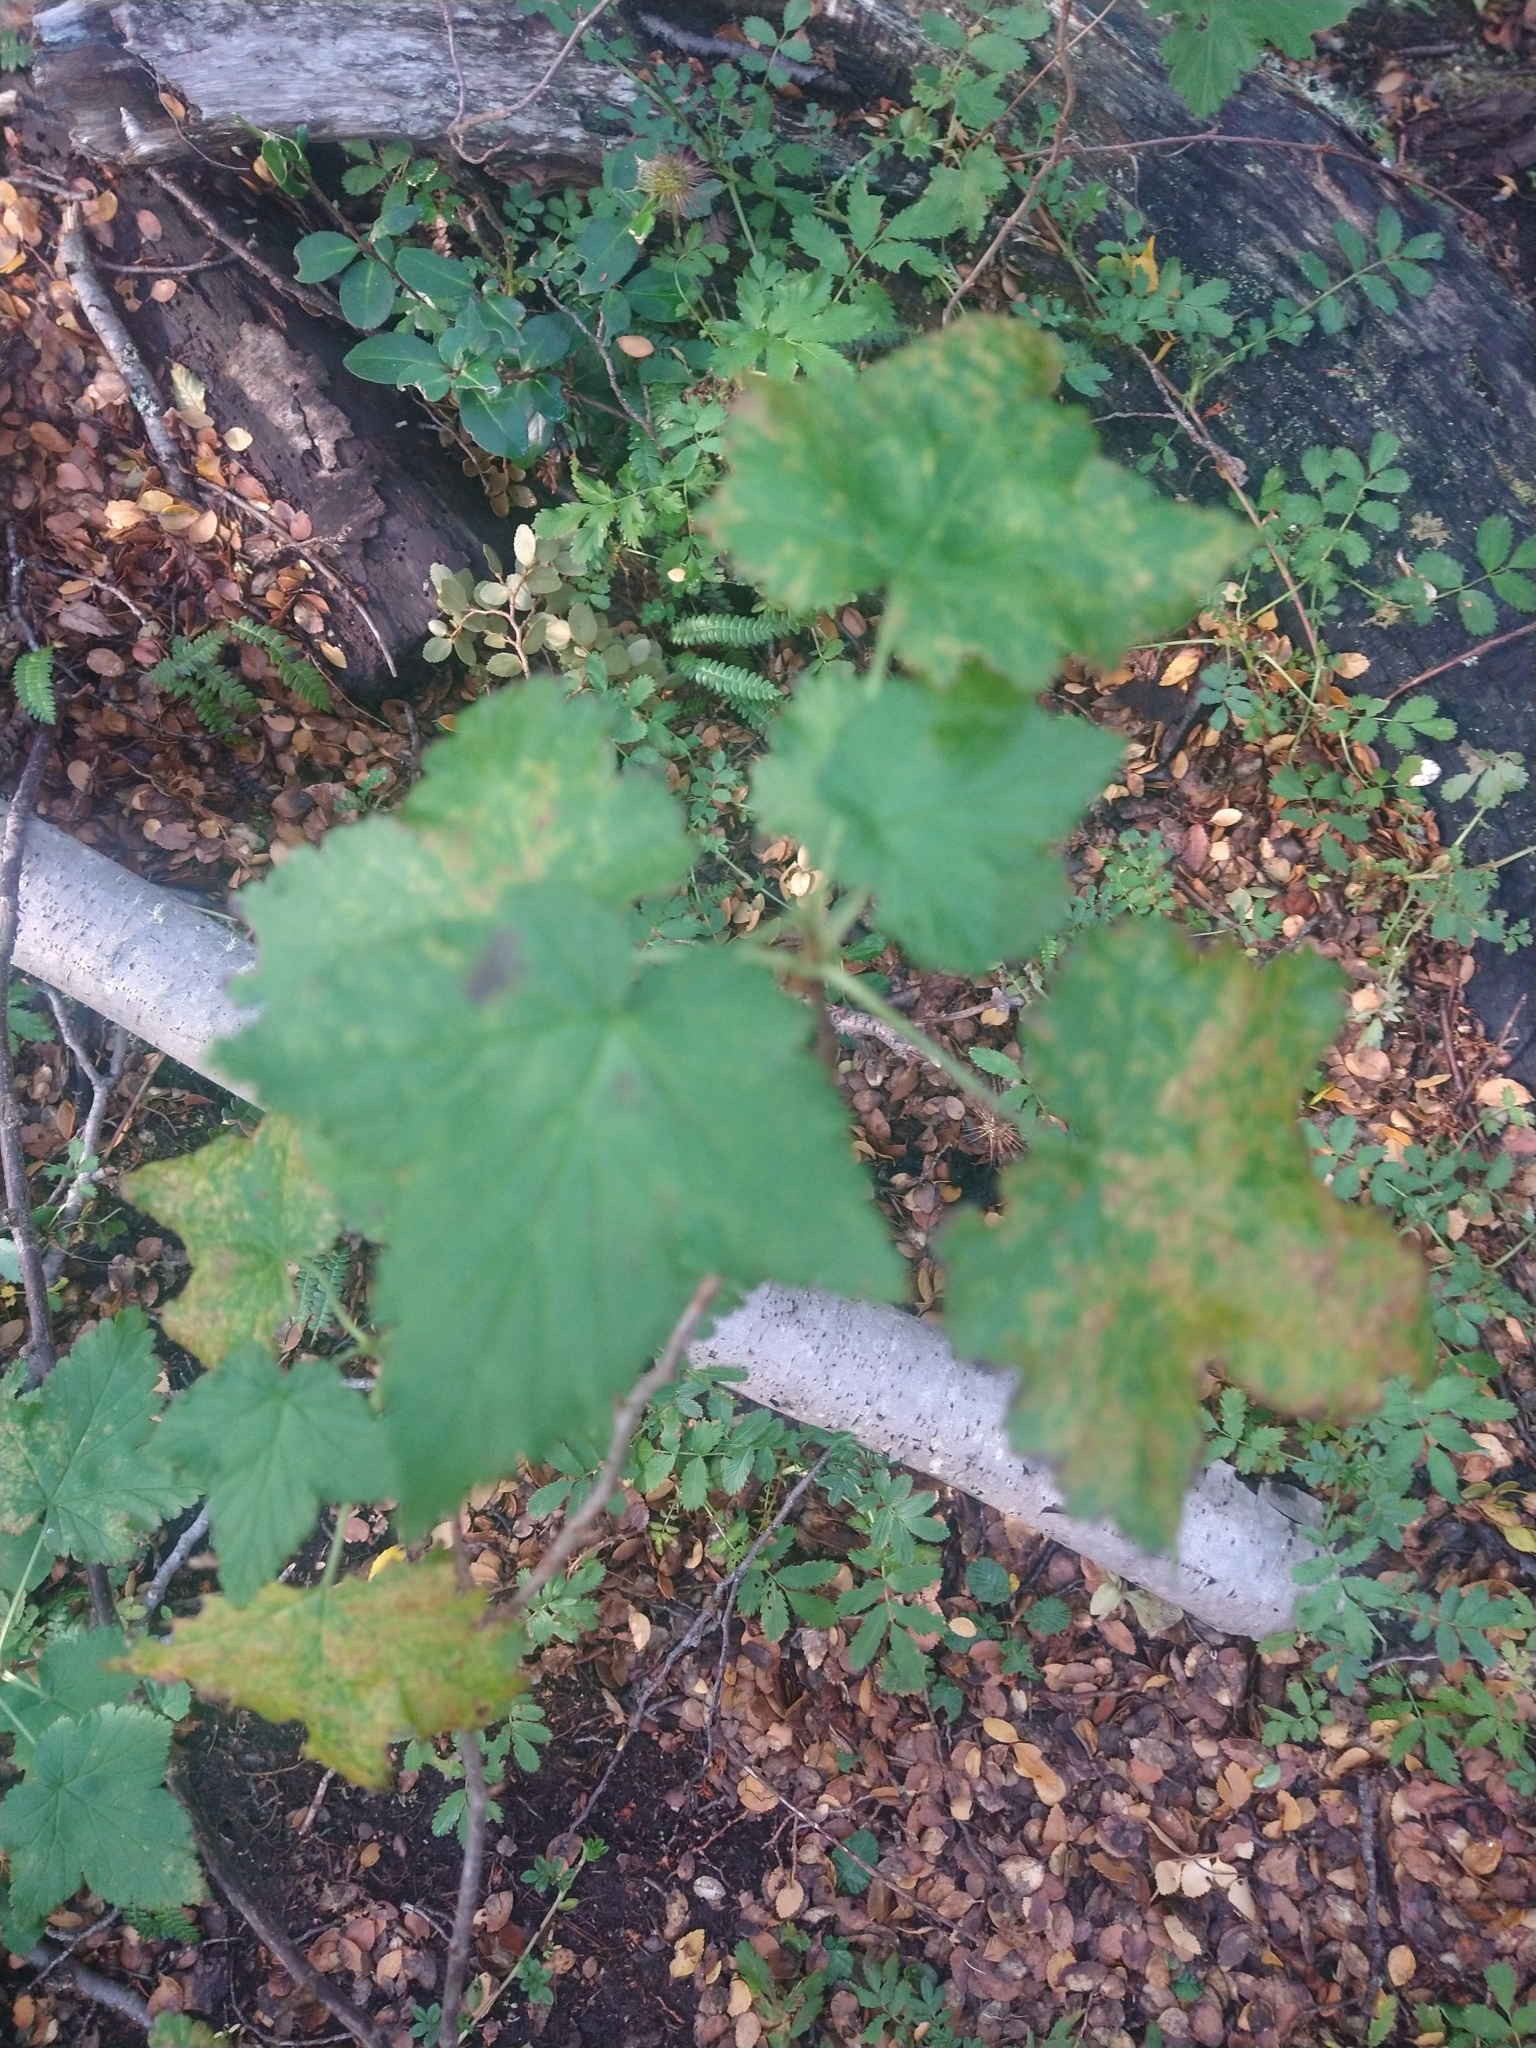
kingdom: Plantae
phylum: Tracheophyta
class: Magnoliopsida
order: Saxifragales
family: Grossulariaceae
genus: Ribes
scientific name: Ribes magellanicum
